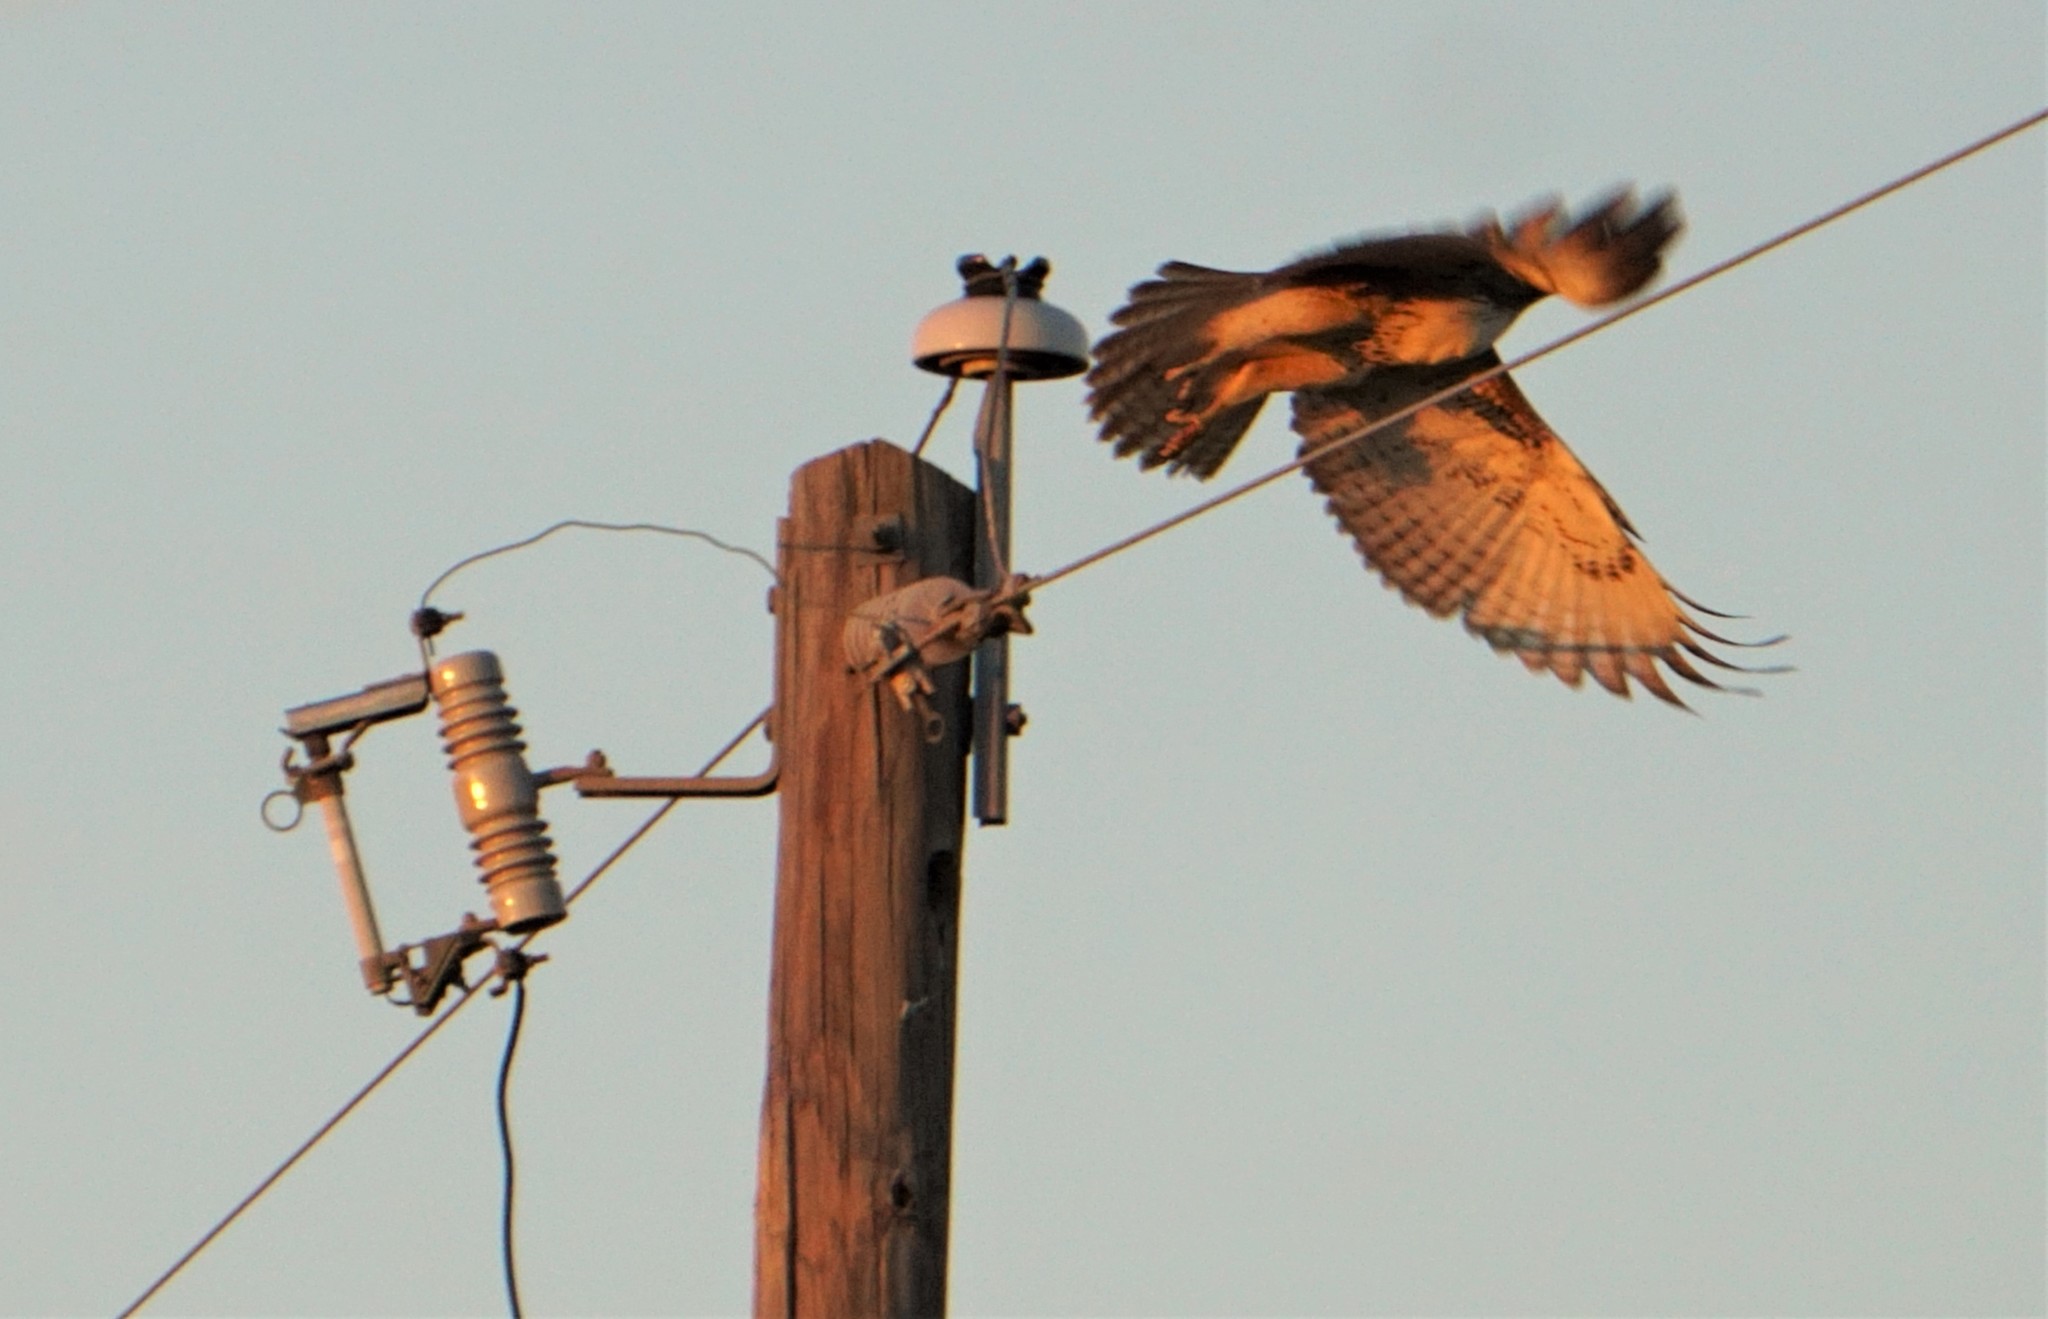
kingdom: Animalia
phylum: Chordata
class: Aves
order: Accipitriformes
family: Accipitridae
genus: Buteo
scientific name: Buteo jamaicensis
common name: Red-tailed hawk
